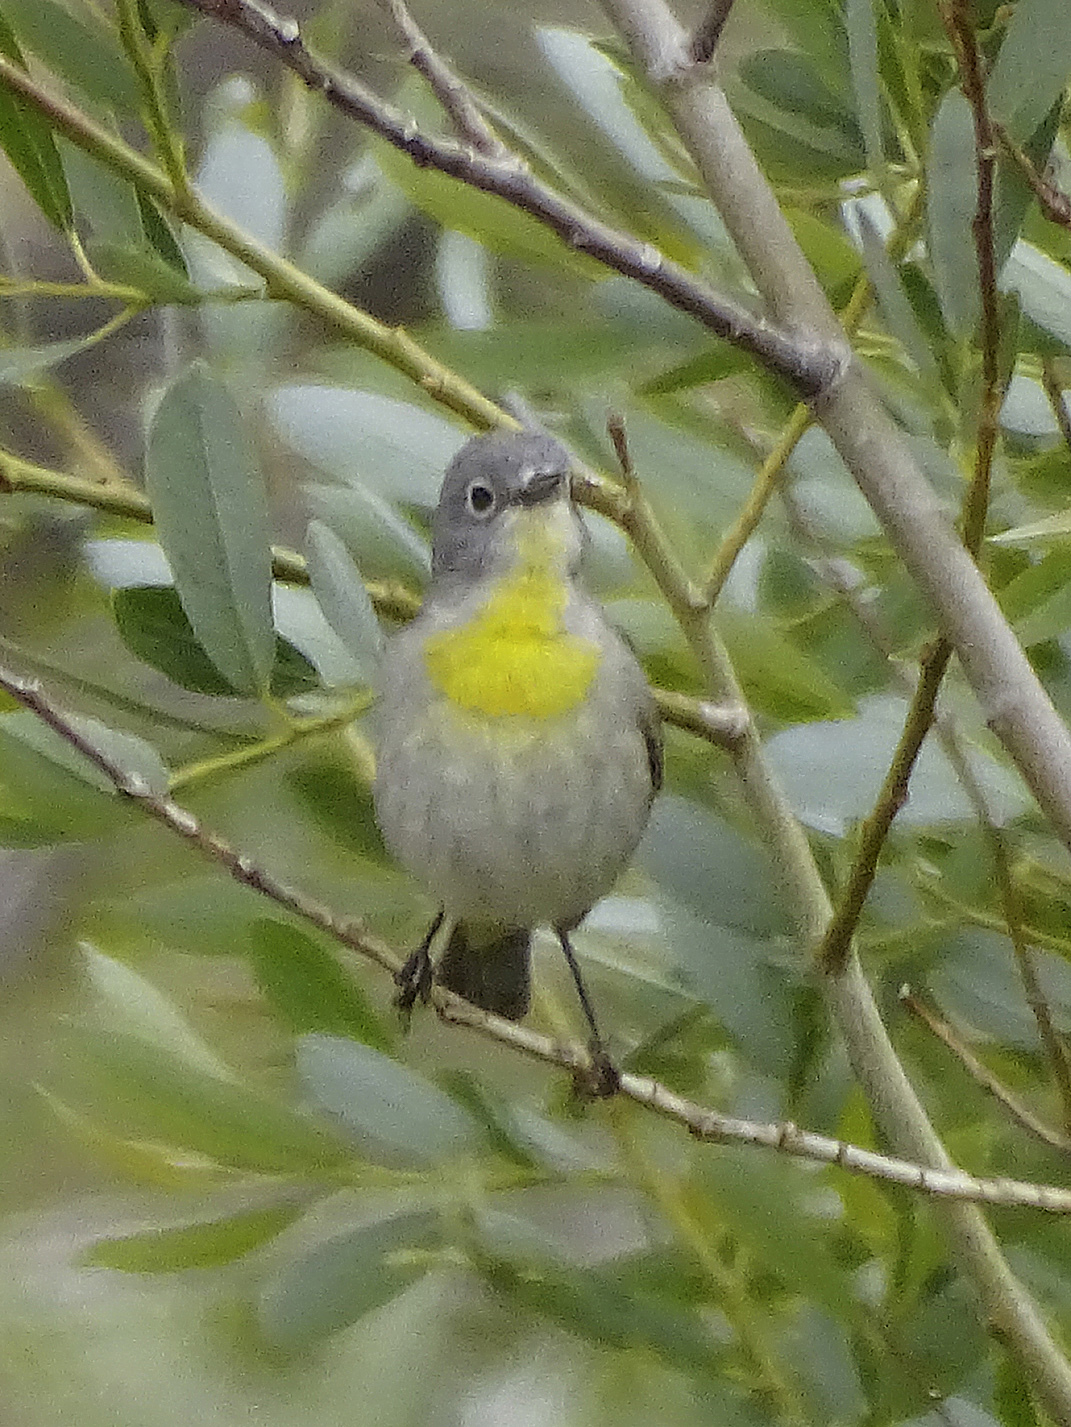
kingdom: Animalia
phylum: Chordata
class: Aves
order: Passeriformes
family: Parulidae
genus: Leiothlypis
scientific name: Leiothlypis virginiae
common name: Virginia's warbler
